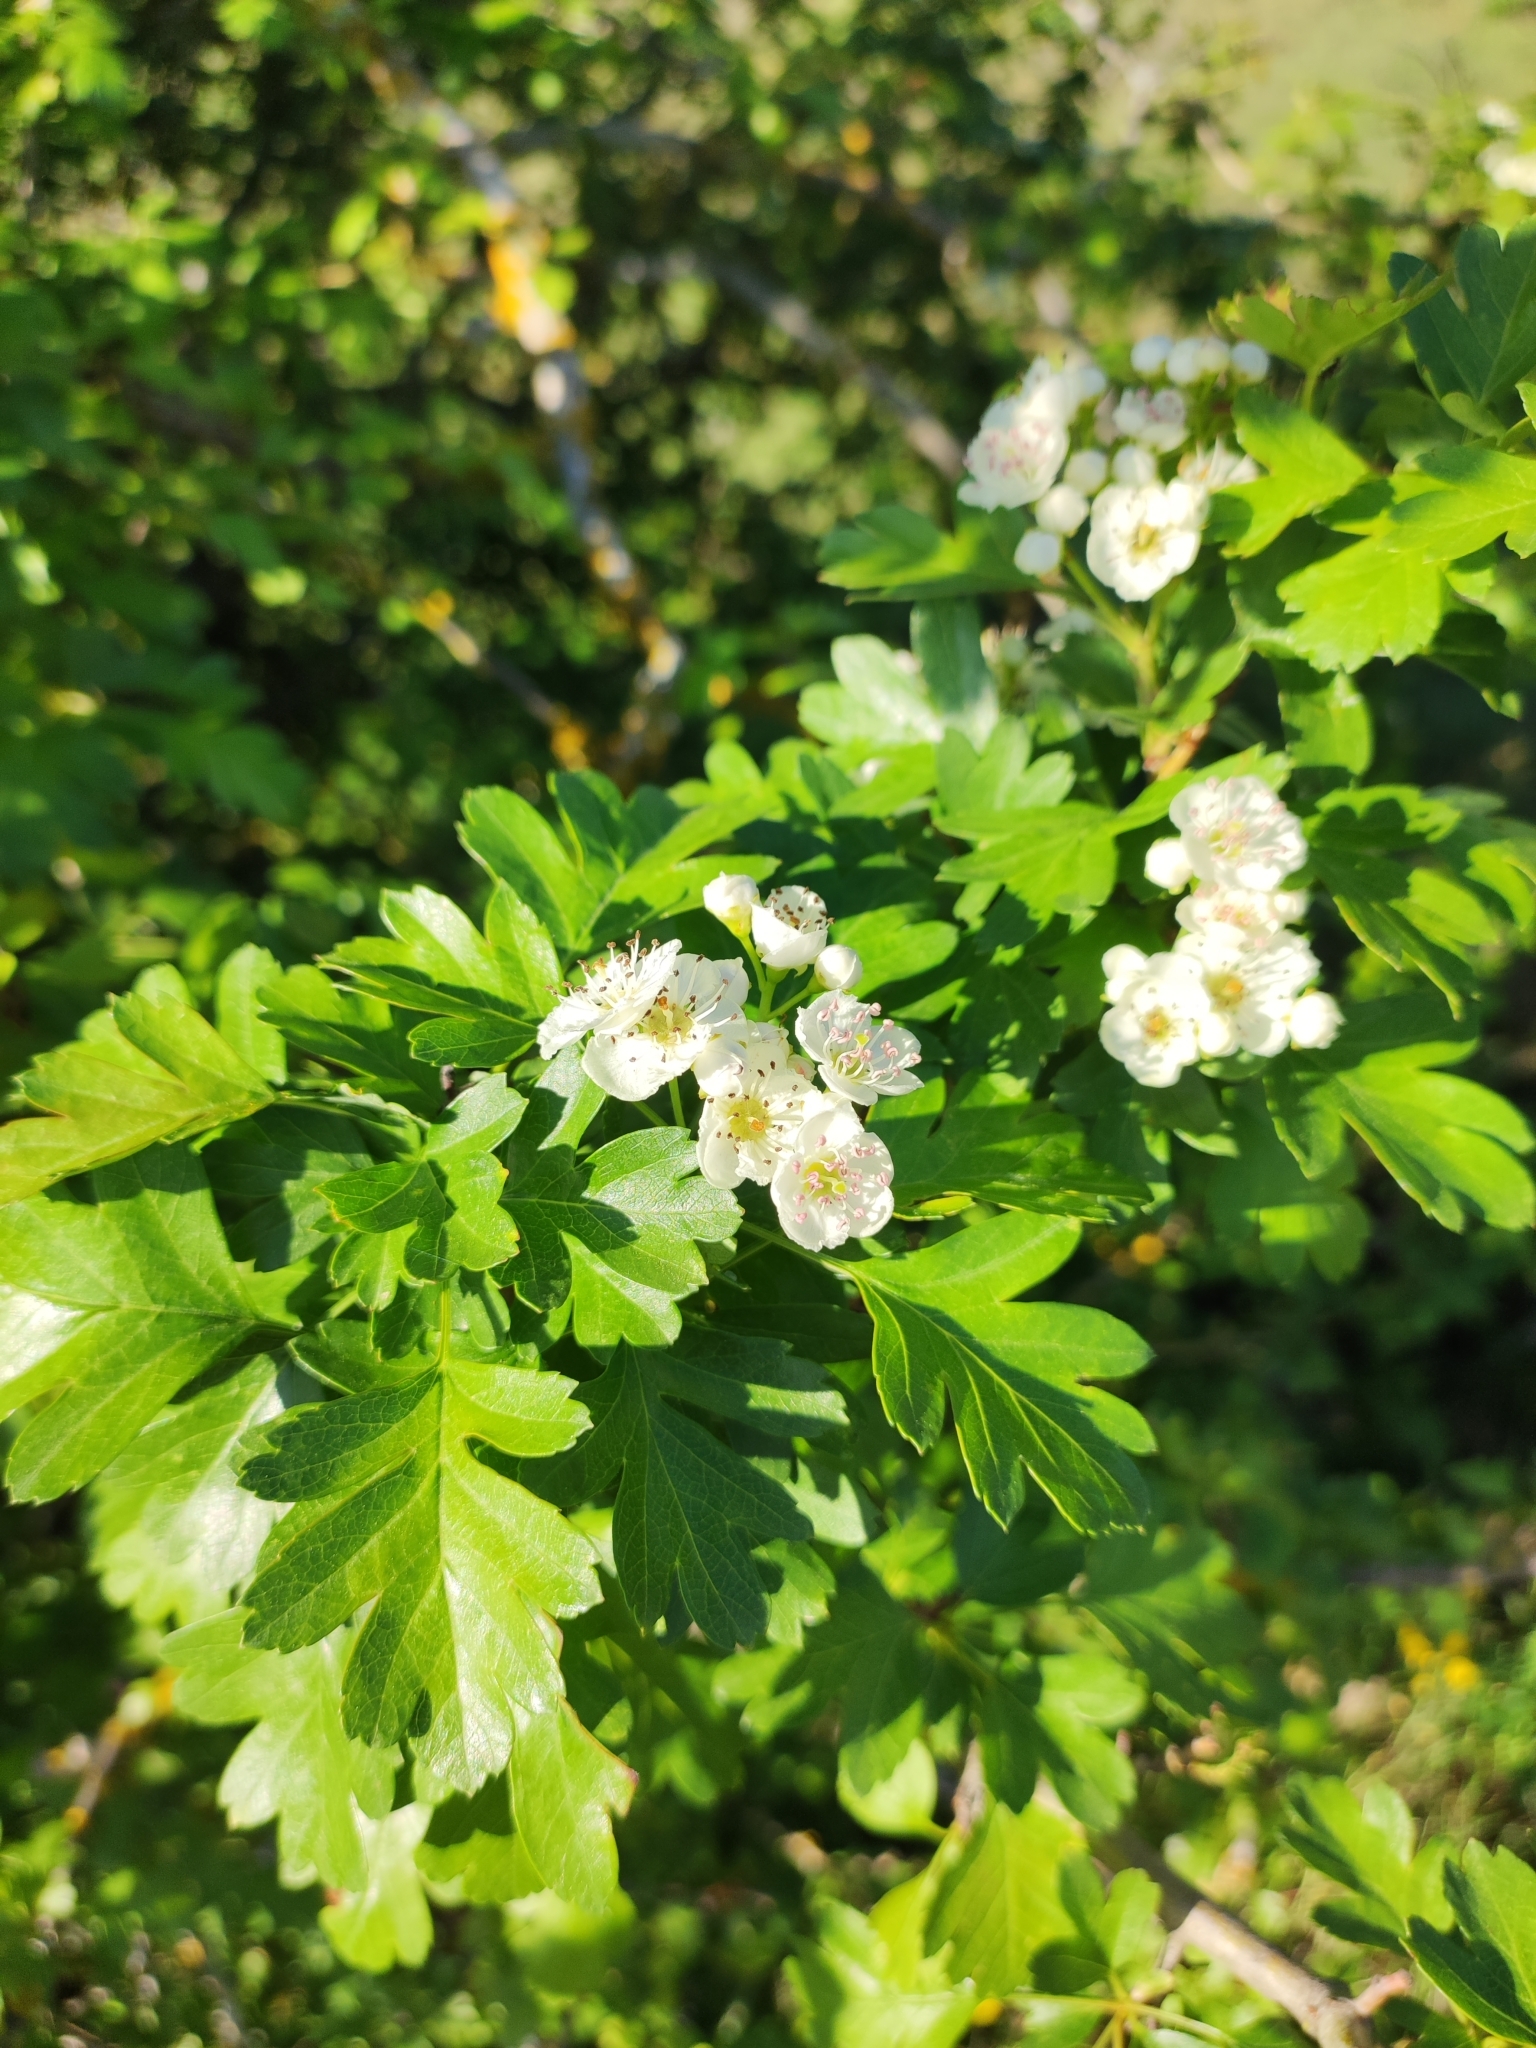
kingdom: Plantae
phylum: Tracheophyta
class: Magnoliopsida
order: Rosales
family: Rosaceae
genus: Crataegus
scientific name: Crataegus monogyna
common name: Hawthorn
